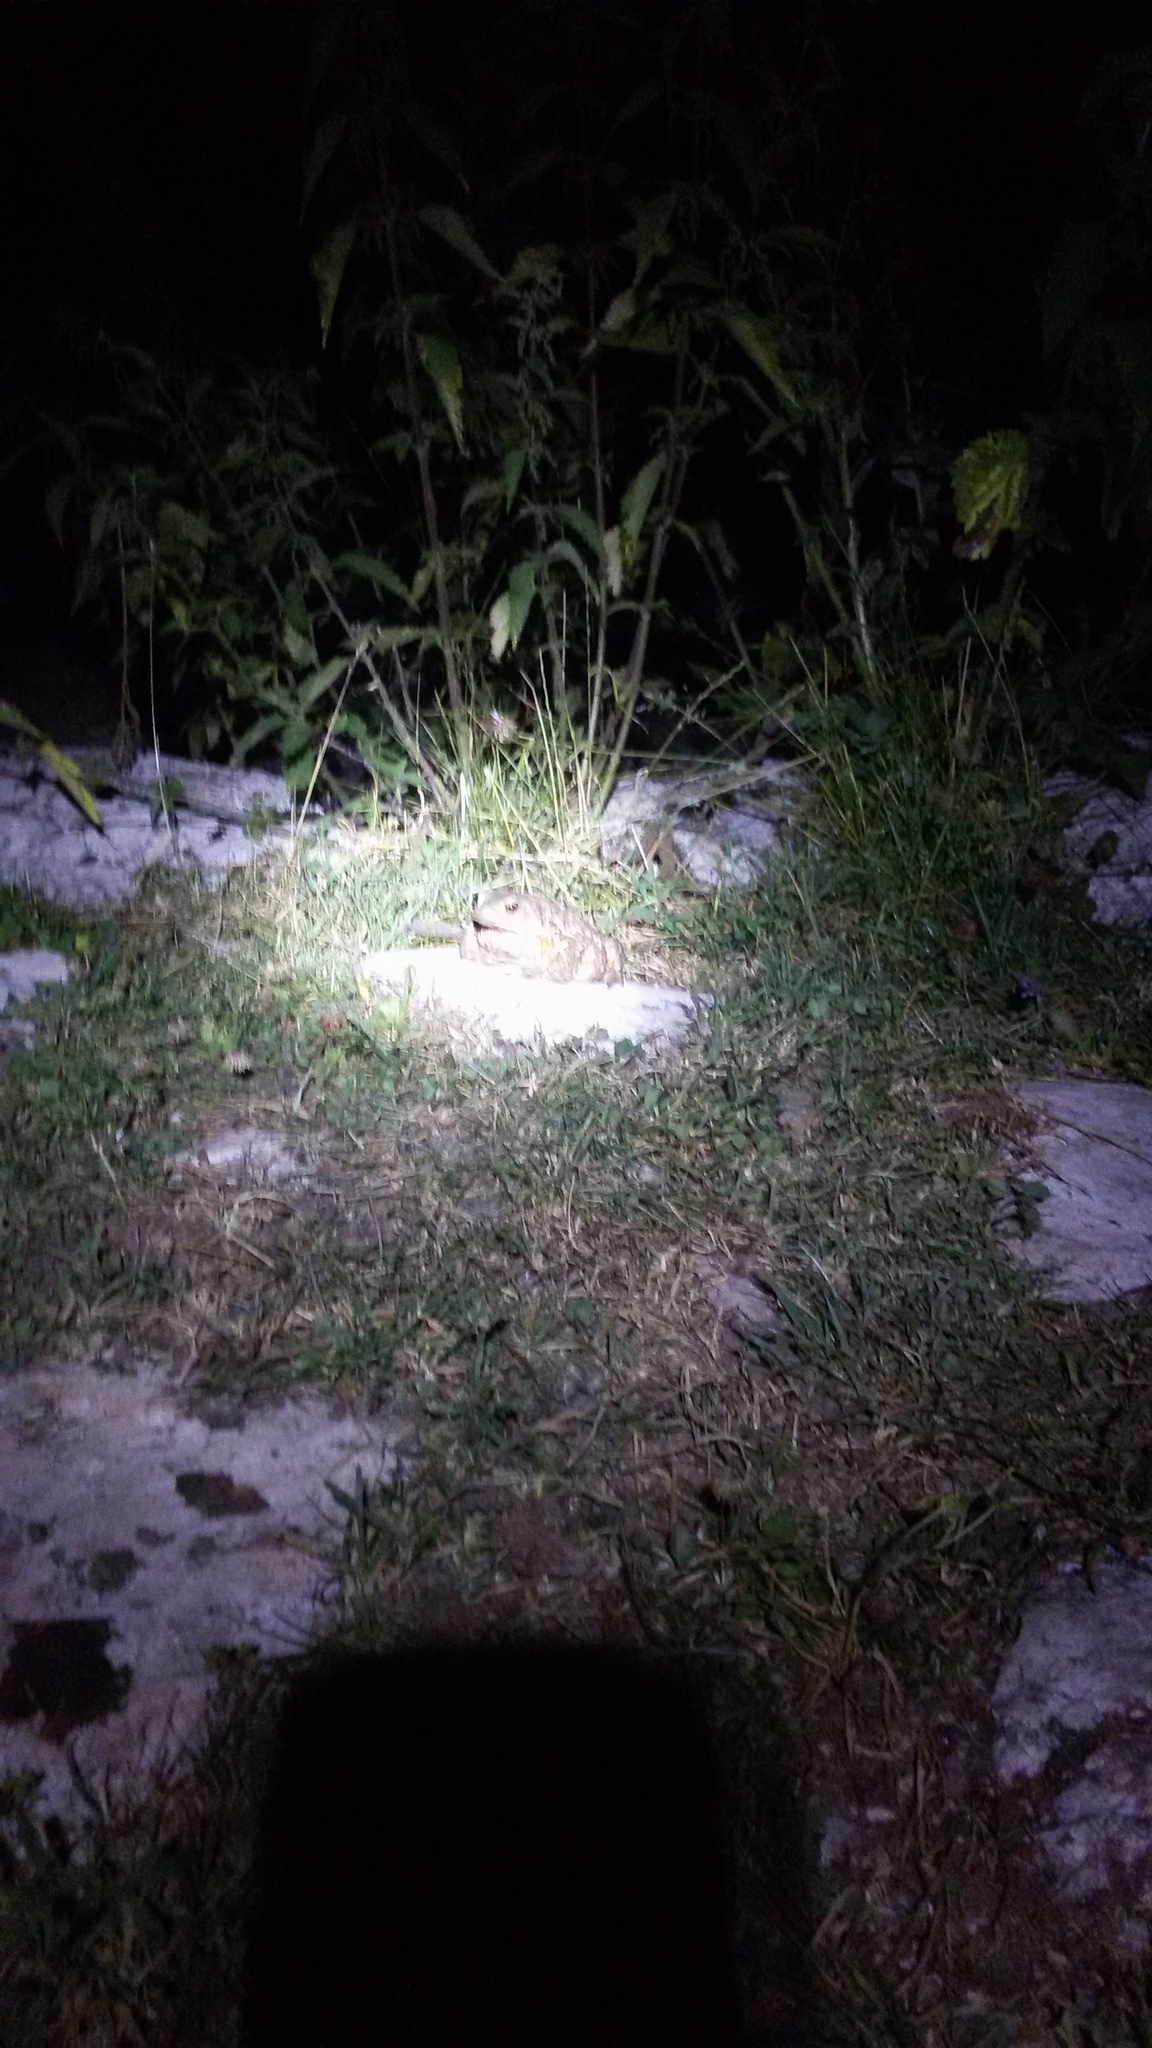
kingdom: Animalia
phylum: Chordata
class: Amphibia
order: Anura
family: Bufonidae
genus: Bufo
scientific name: Bufo bufo
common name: Common toad
